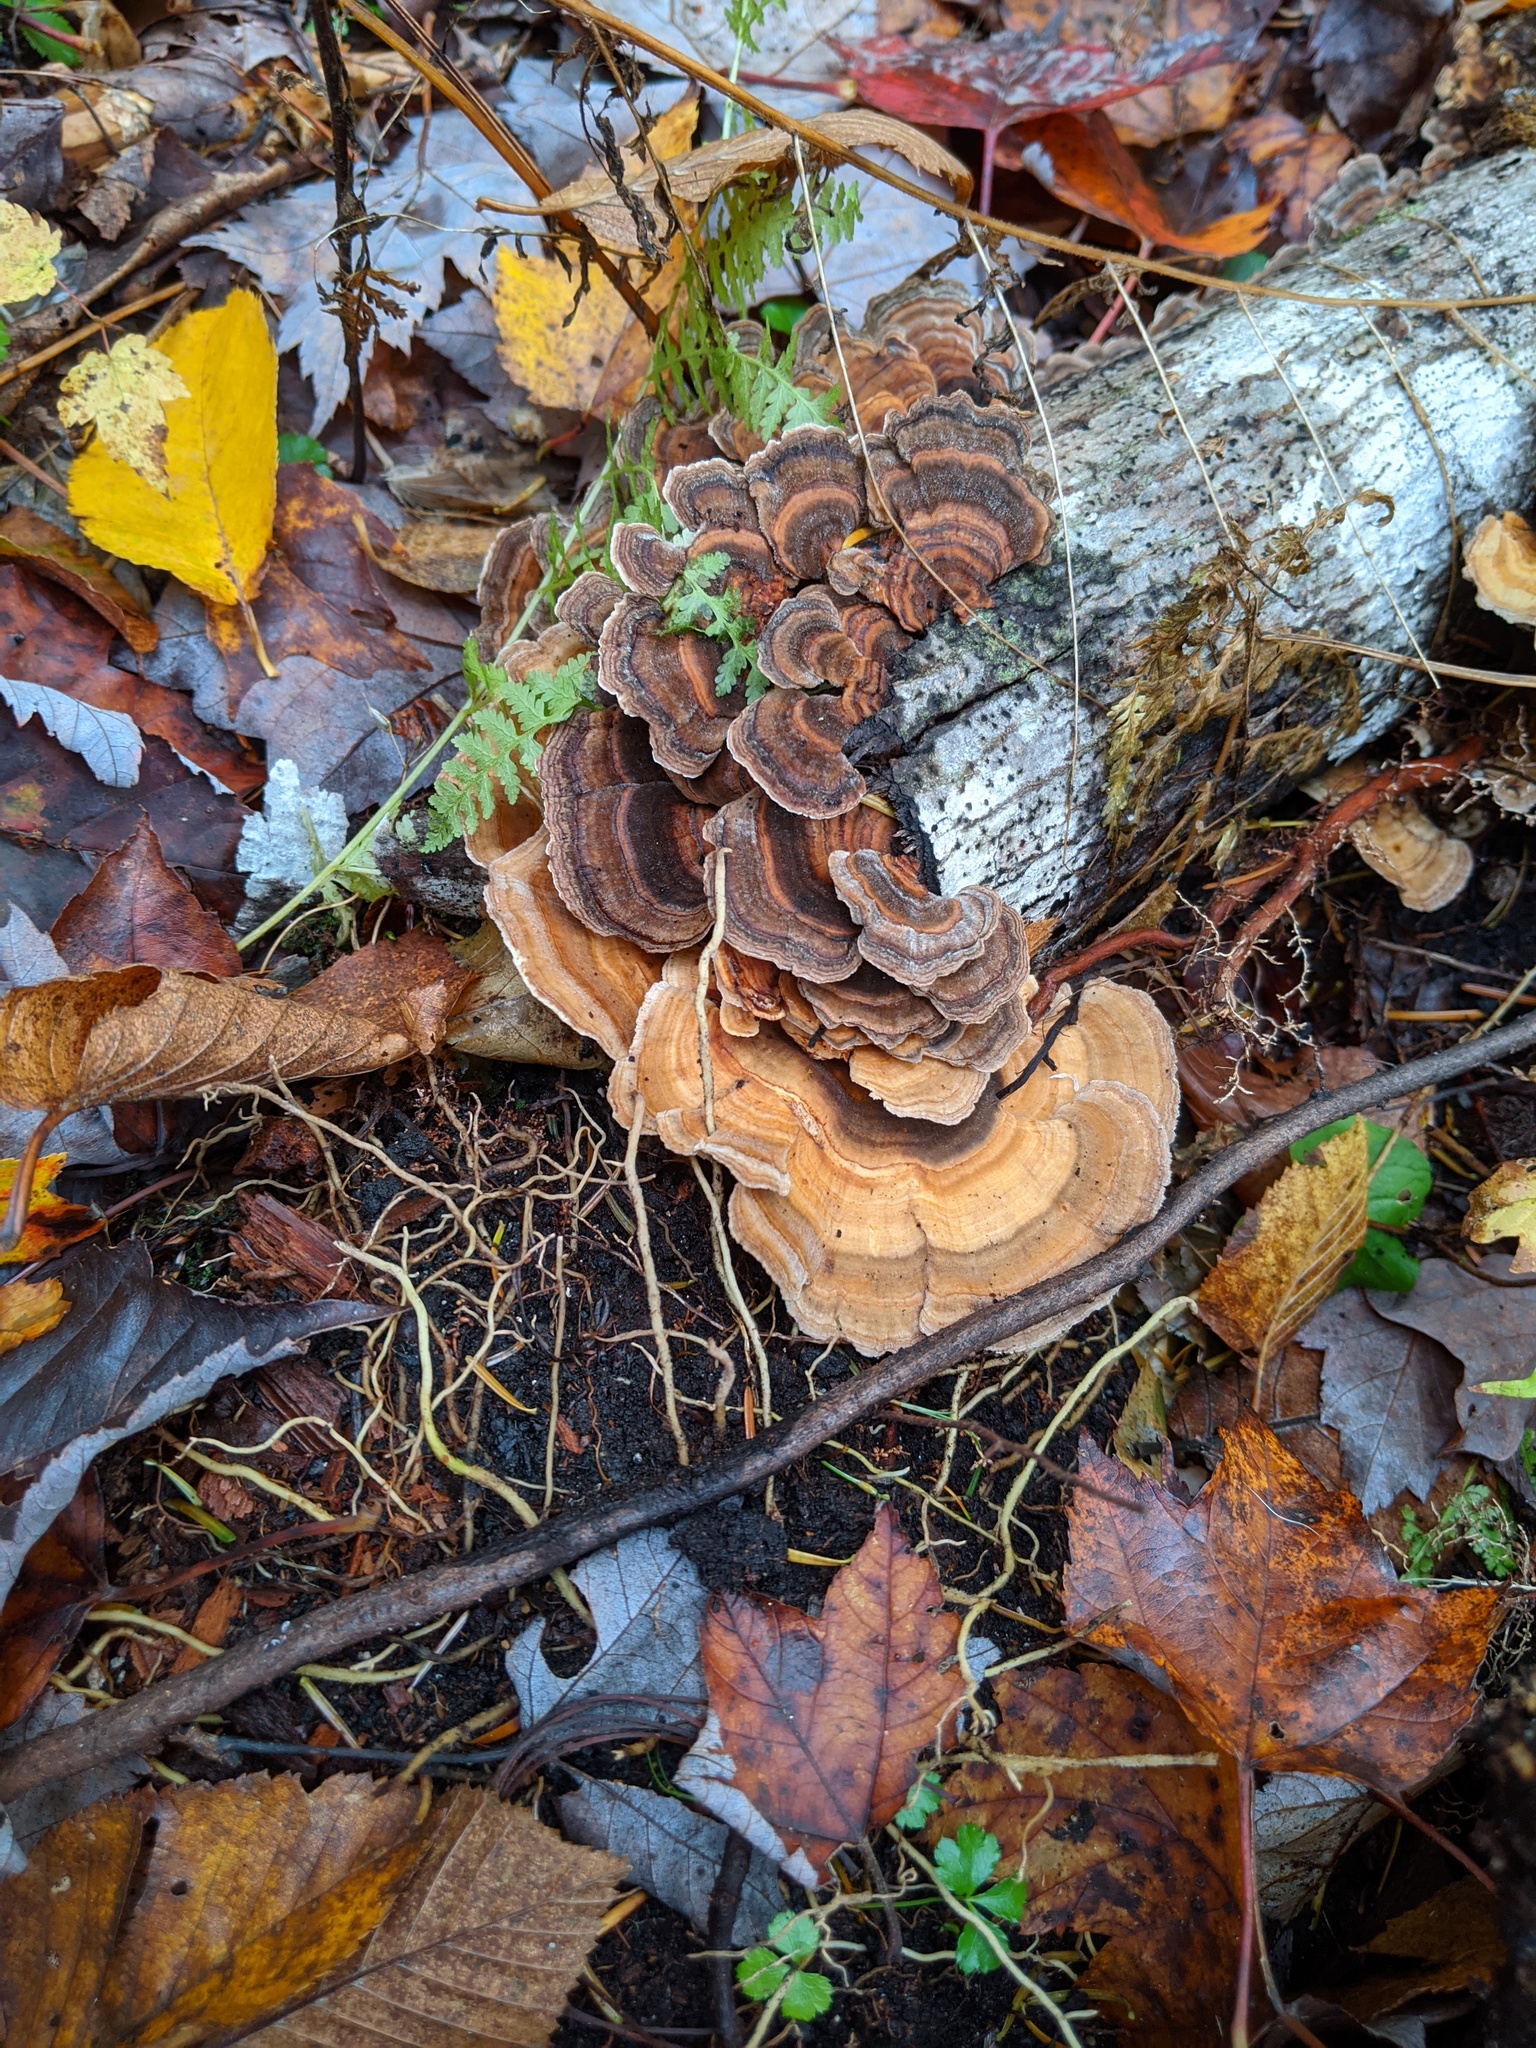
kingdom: Fungi
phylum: Basidiomycota
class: Agaricomycetes
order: Polyporales
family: Polyporaceae
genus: Trametes
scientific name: Trametes versicolor
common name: Turkeytail
